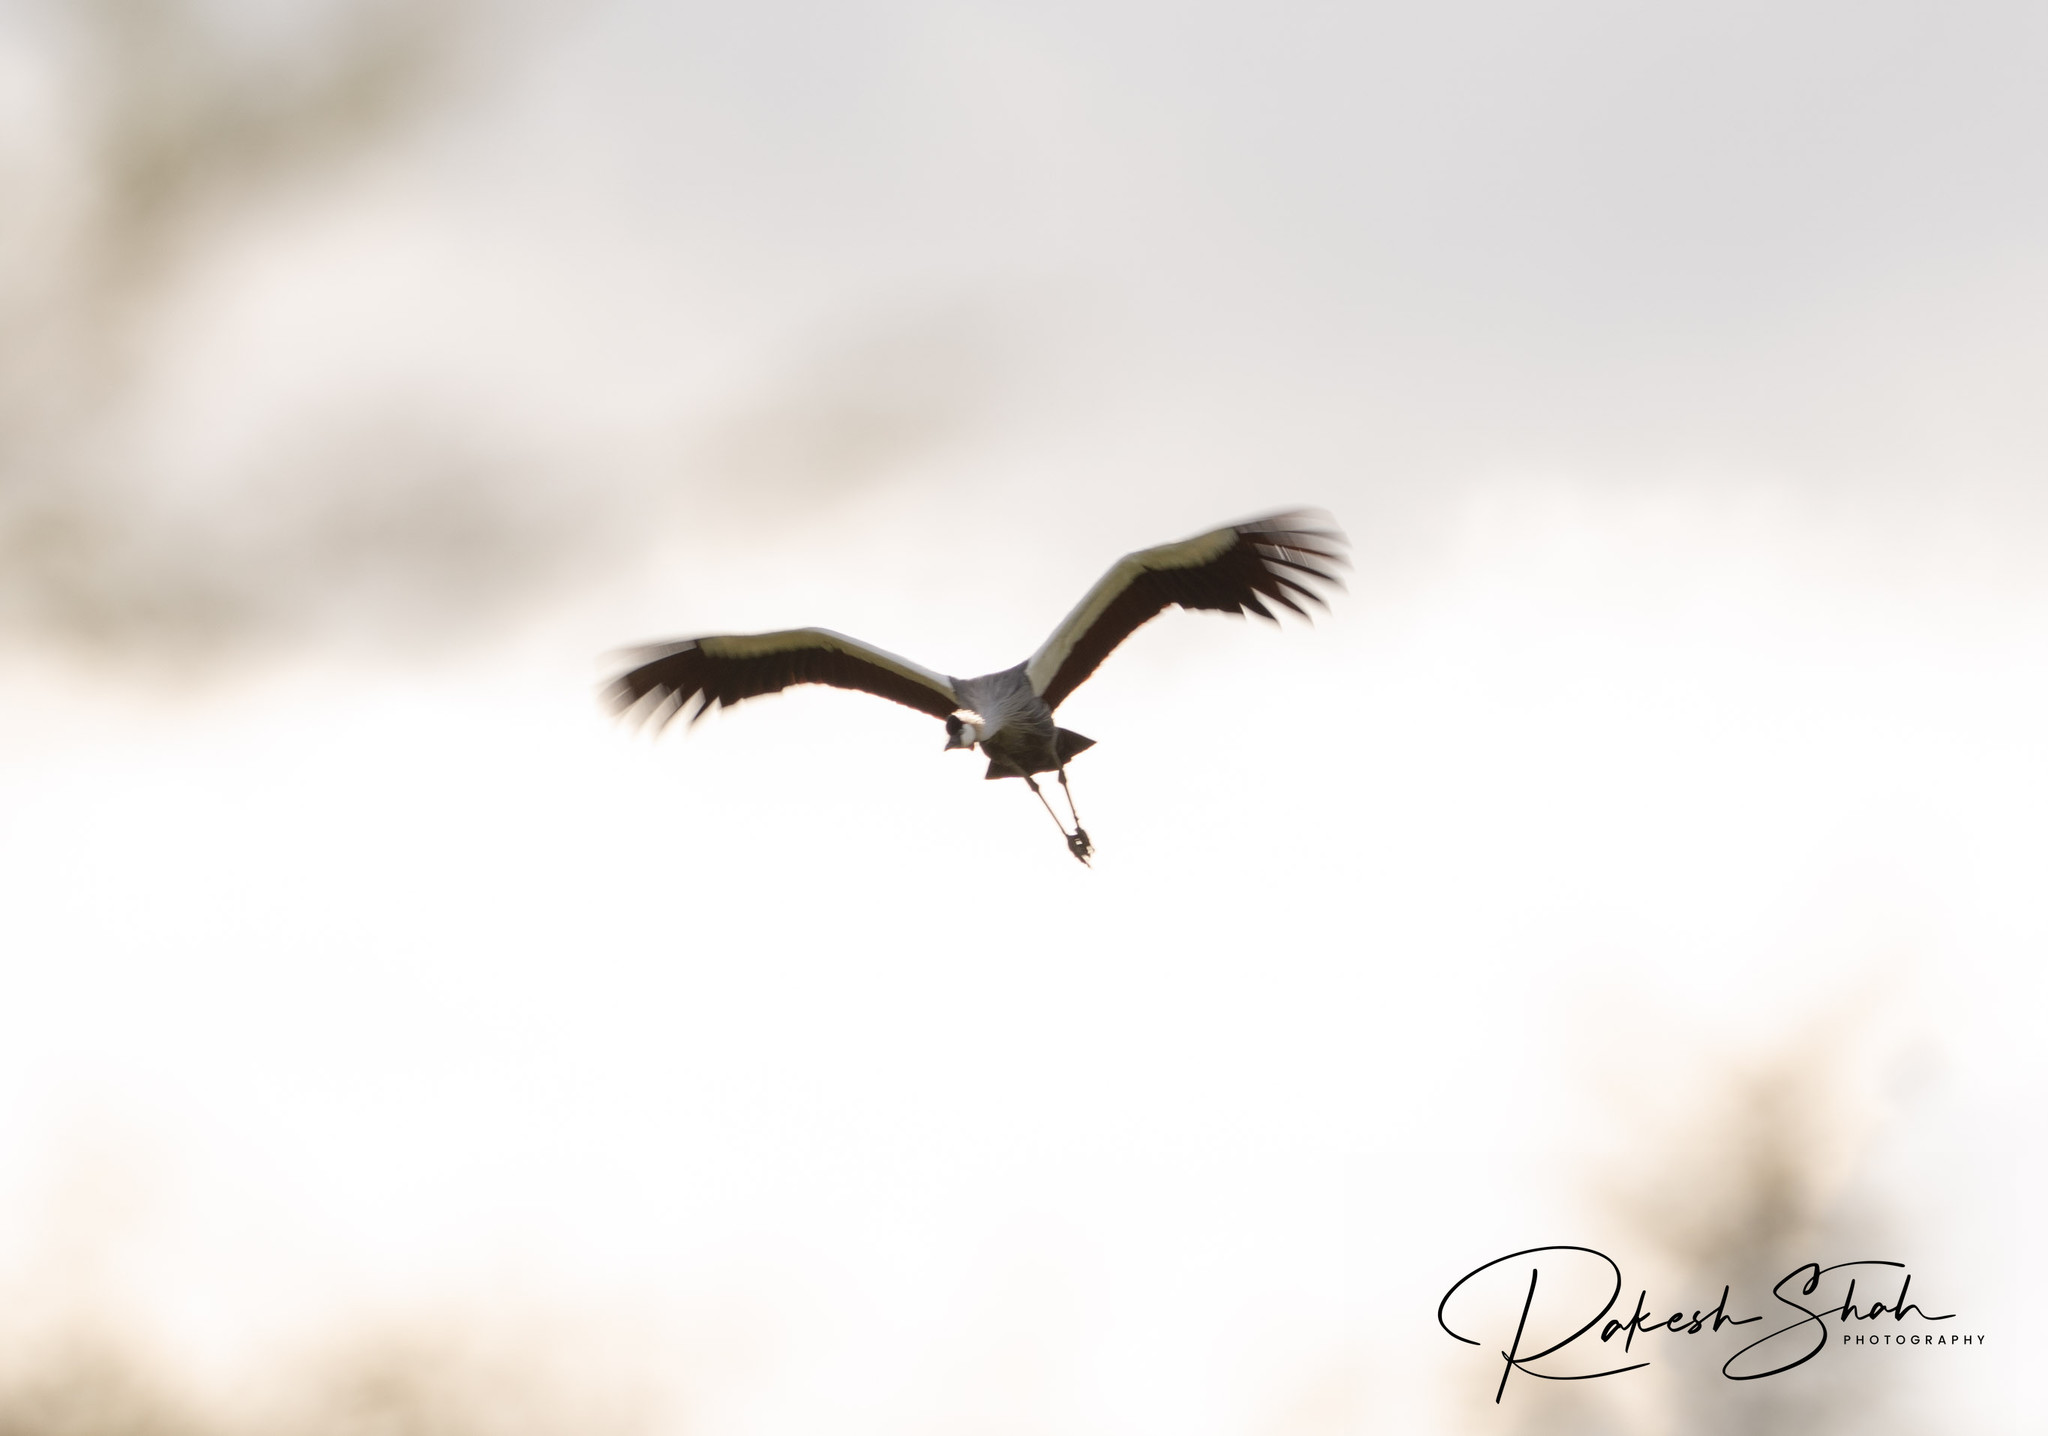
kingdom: Animalia
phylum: Chordata
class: Aves
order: Gruiformes
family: Gruidae
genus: Balearica
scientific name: Balearica regulorum
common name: Grey crowned crane
